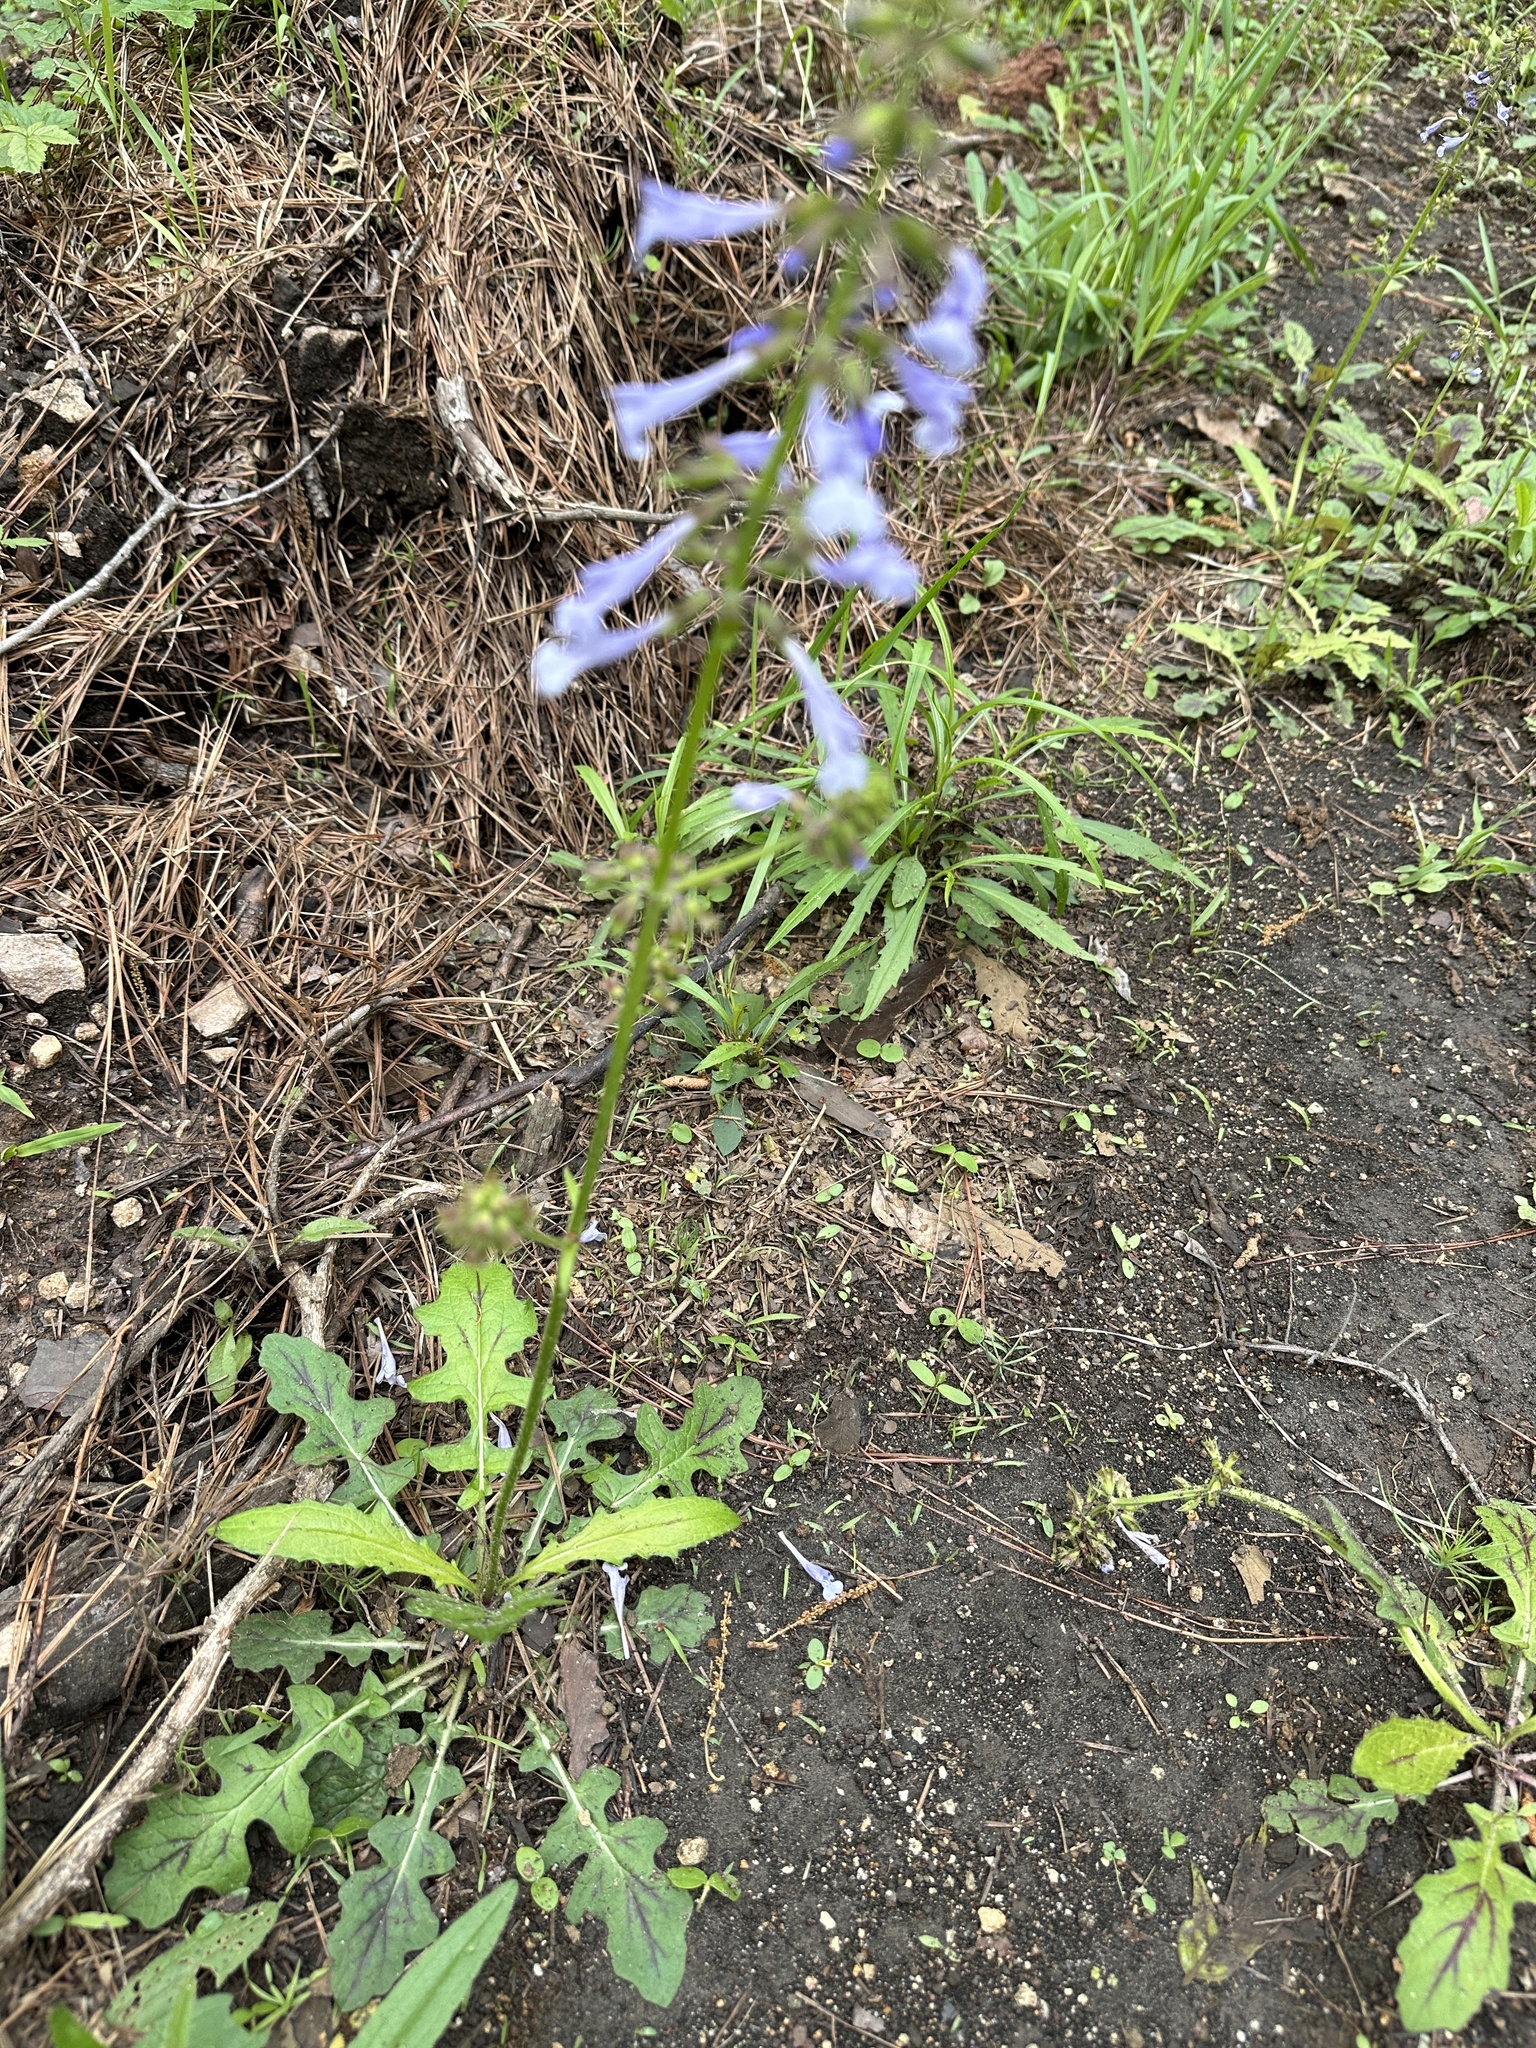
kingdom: Plantae
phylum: Tracheophyta
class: Magnoliopsida
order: Lamiales
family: Lamiaceae
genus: Salvia
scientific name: Salvia lyrata
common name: Cancerweed
